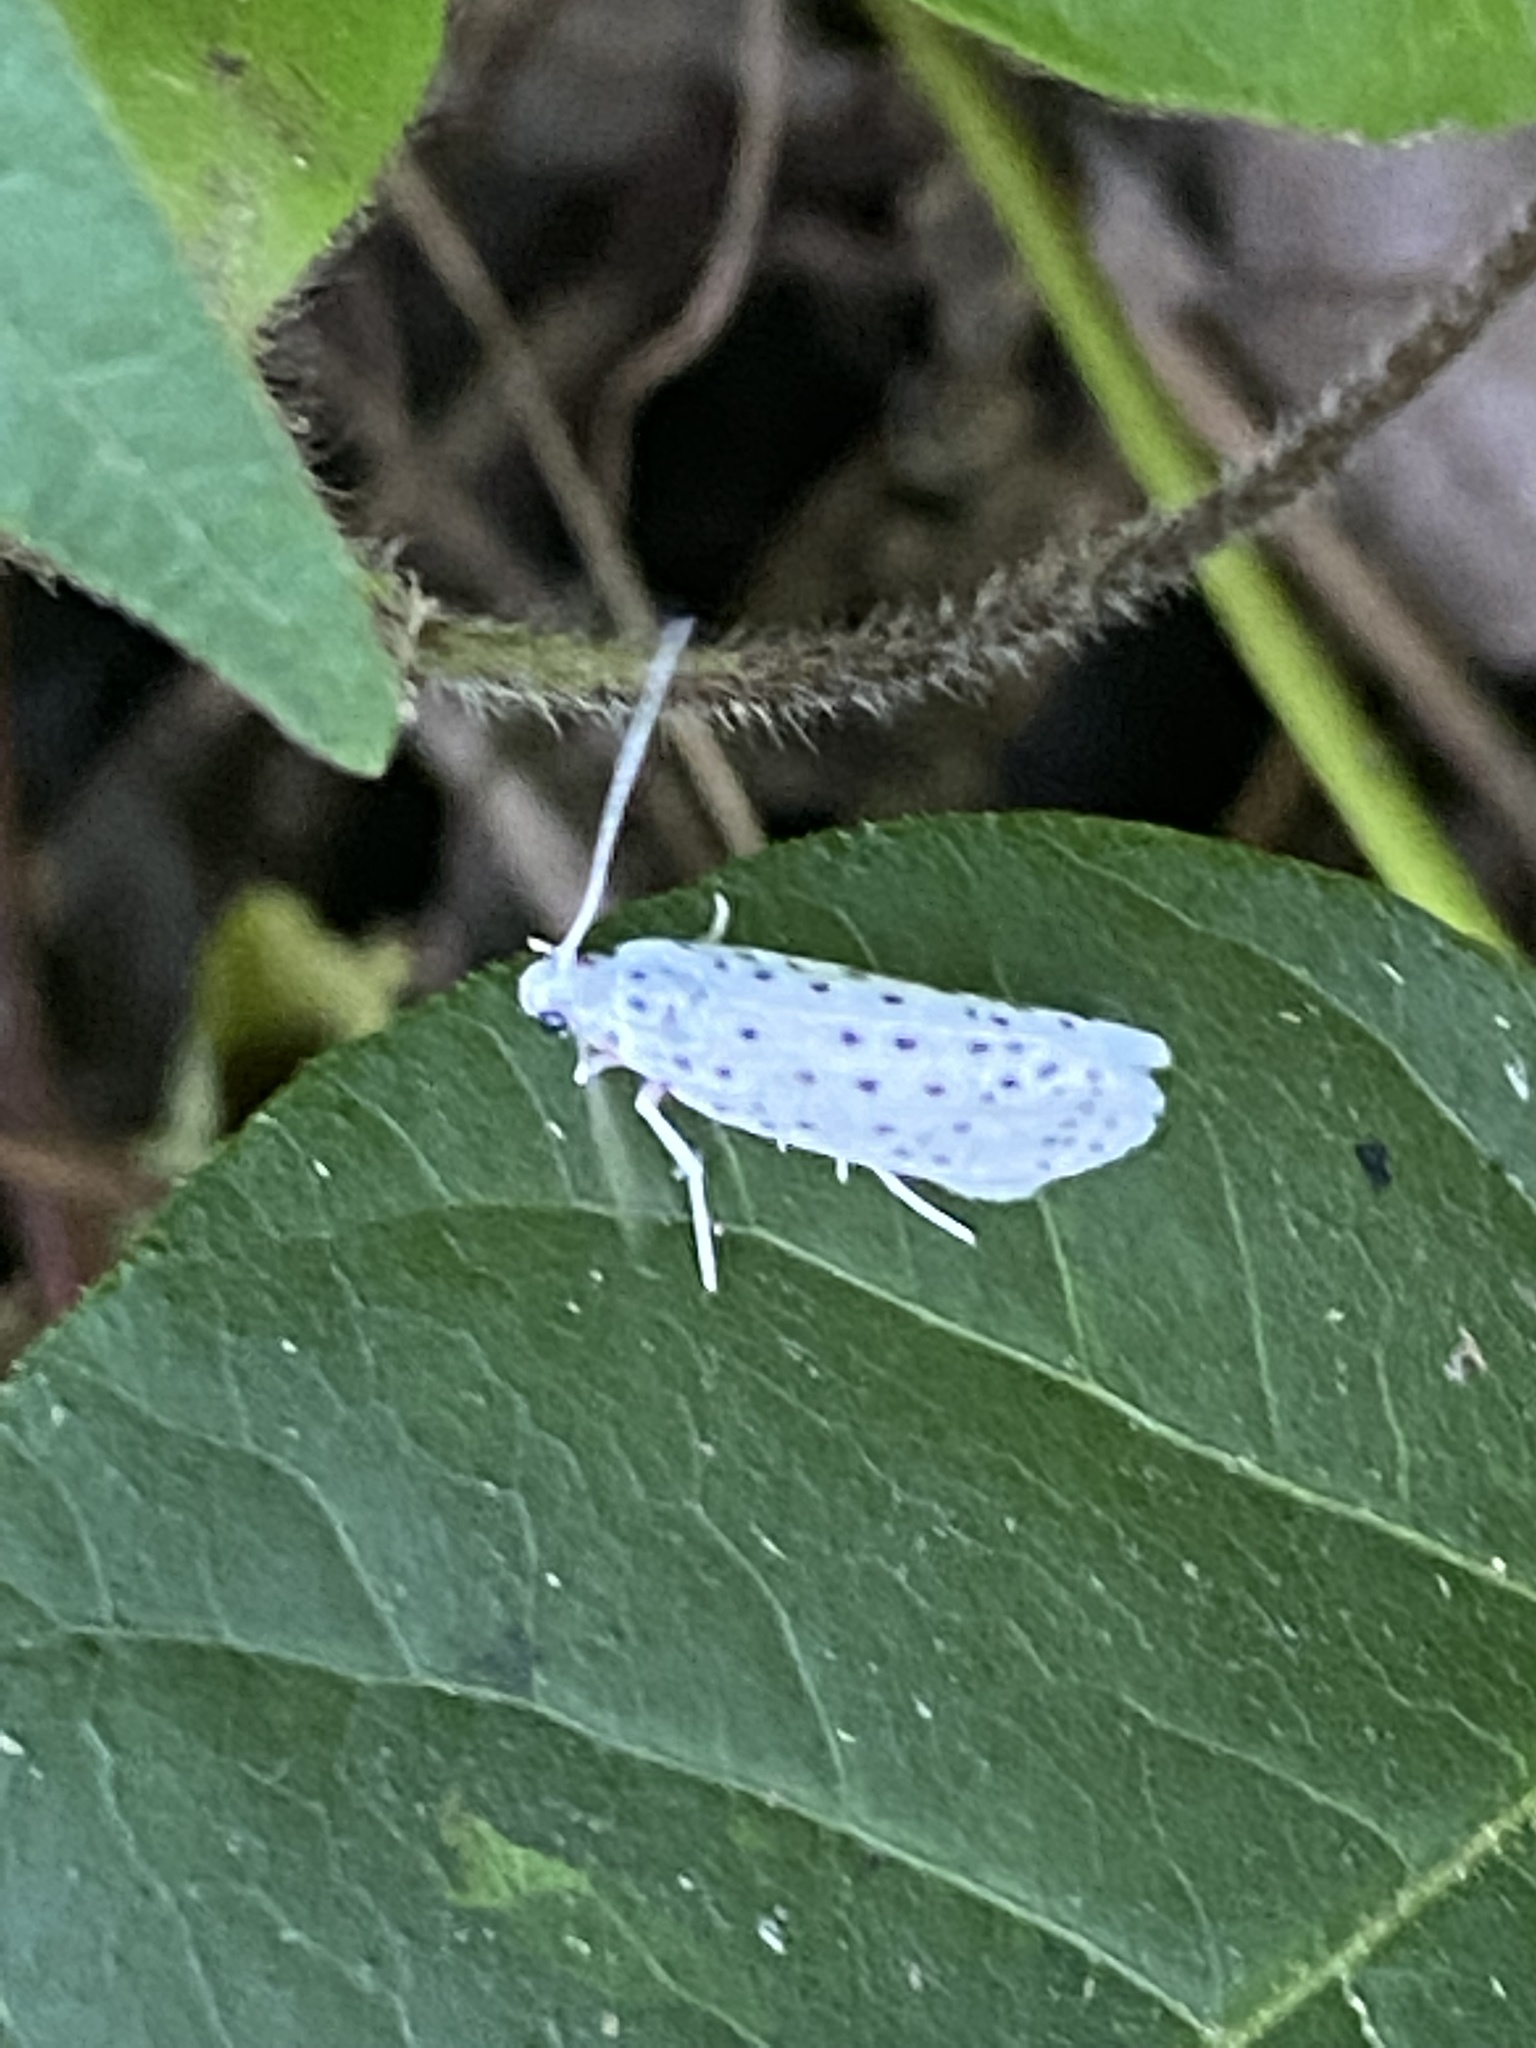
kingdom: Animalia
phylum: Arthropoda
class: Insecta
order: Lepidoptera
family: Yponomeutidae
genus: Yponomeuta
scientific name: Yponomeuta multipunctella
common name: American ermine moth
